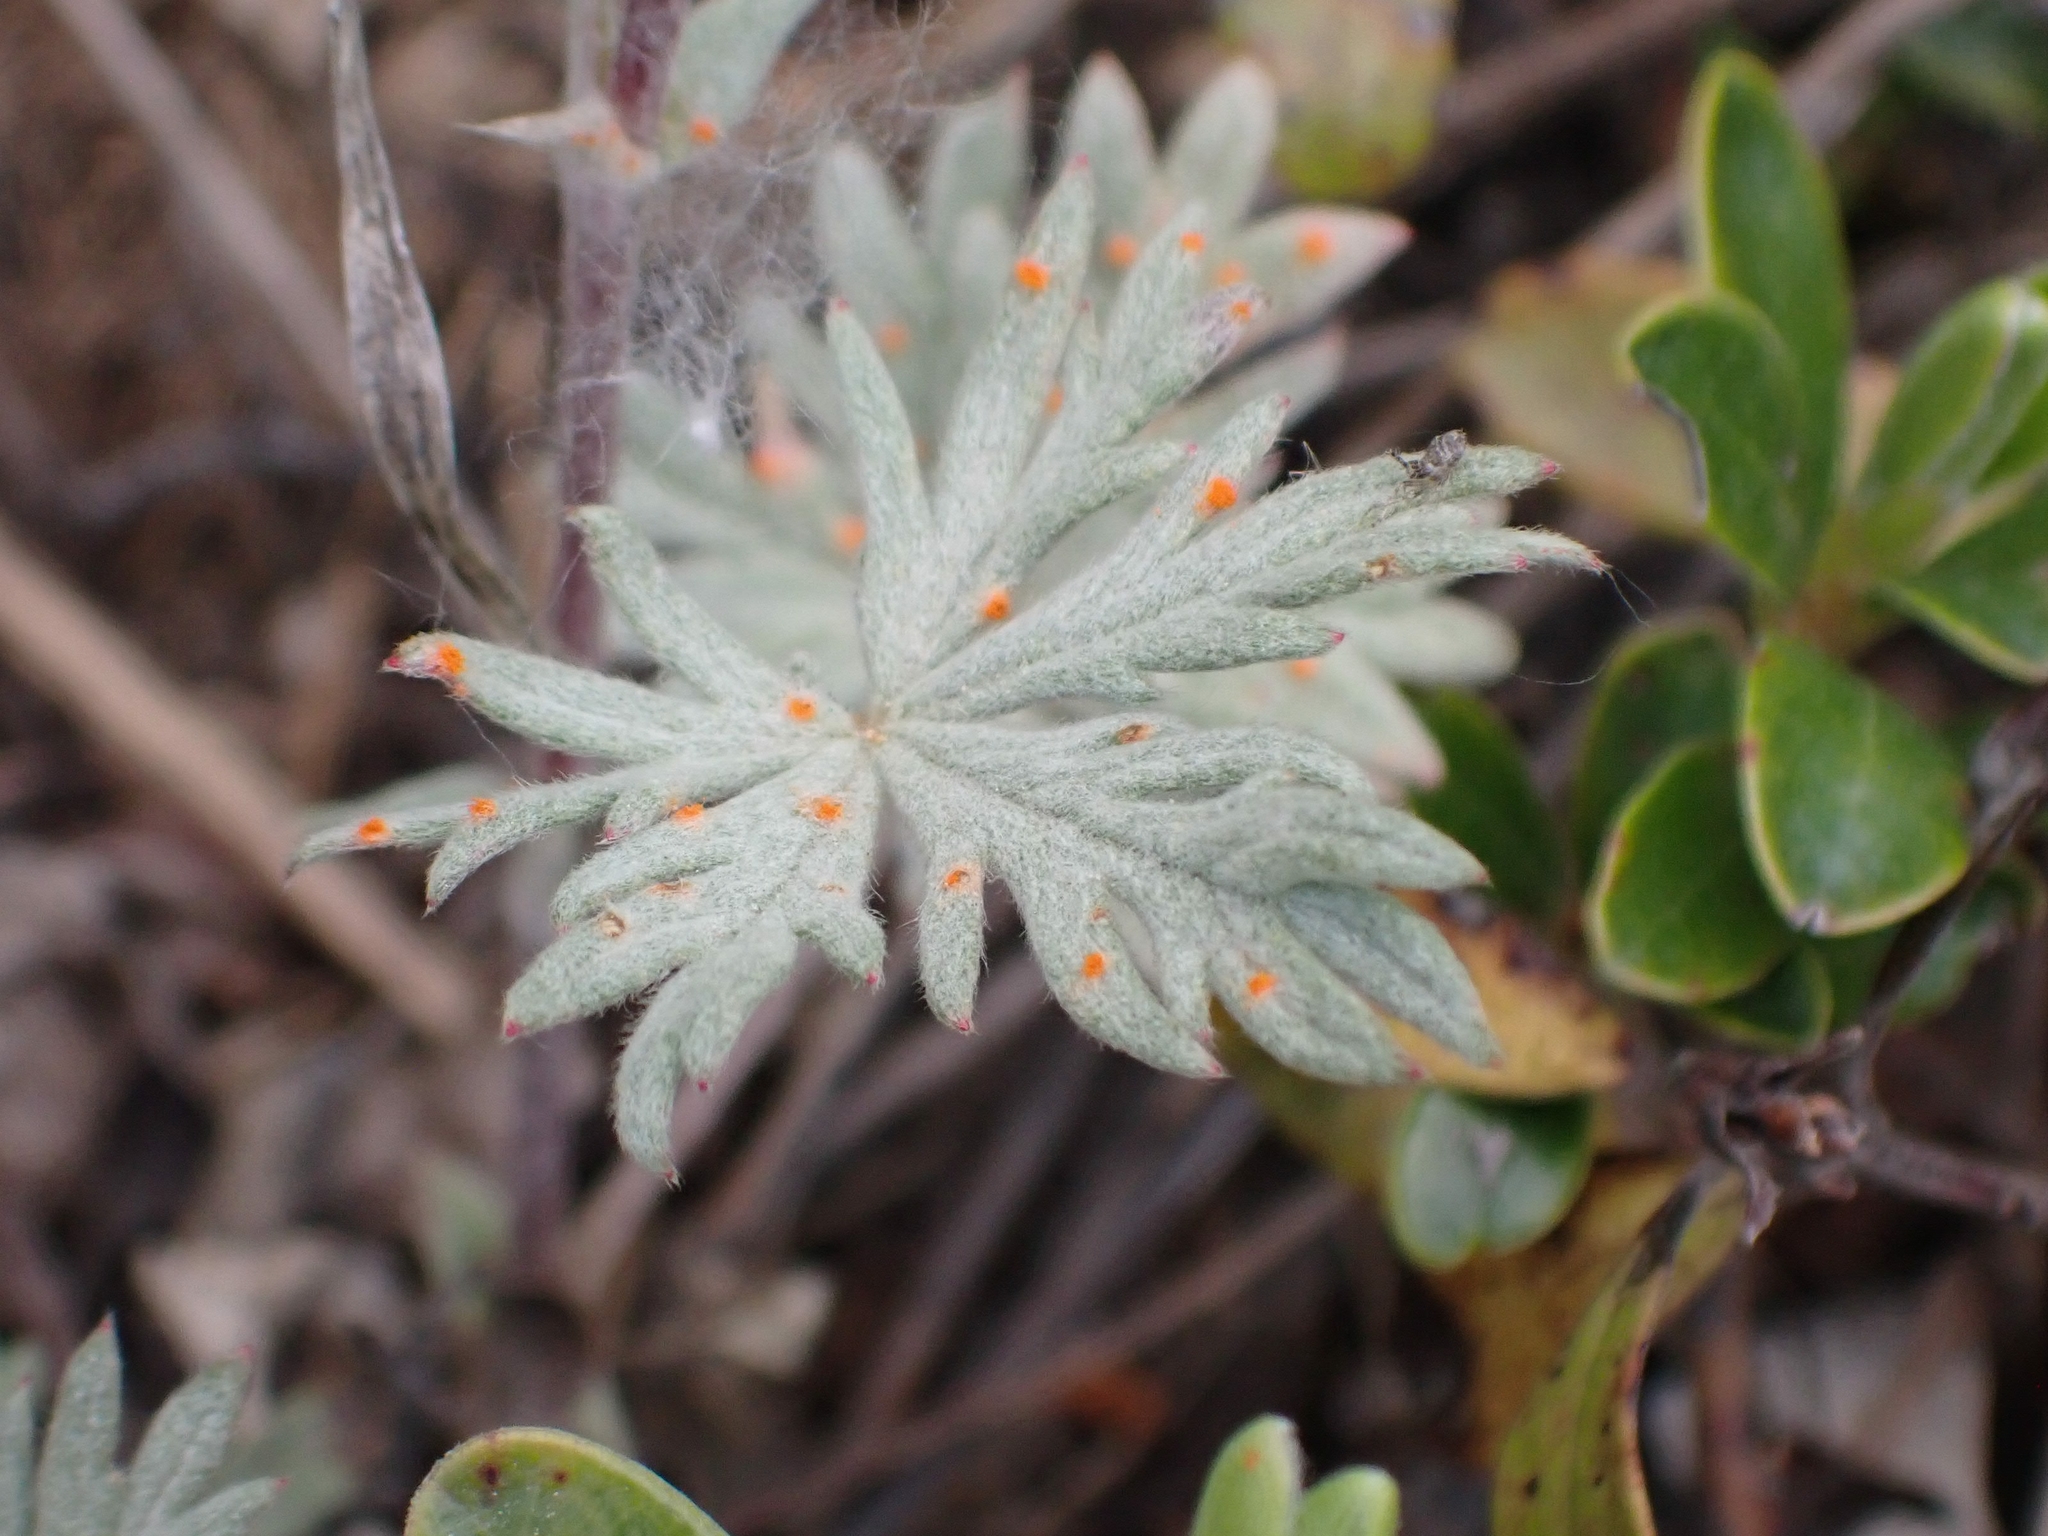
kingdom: Plantae
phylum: Tracheophyta
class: Magnoliopsida
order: Rosales
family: Rosaceae
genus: Potentilla
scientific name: Potentilla argentea
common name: Hoary cinquefoil
